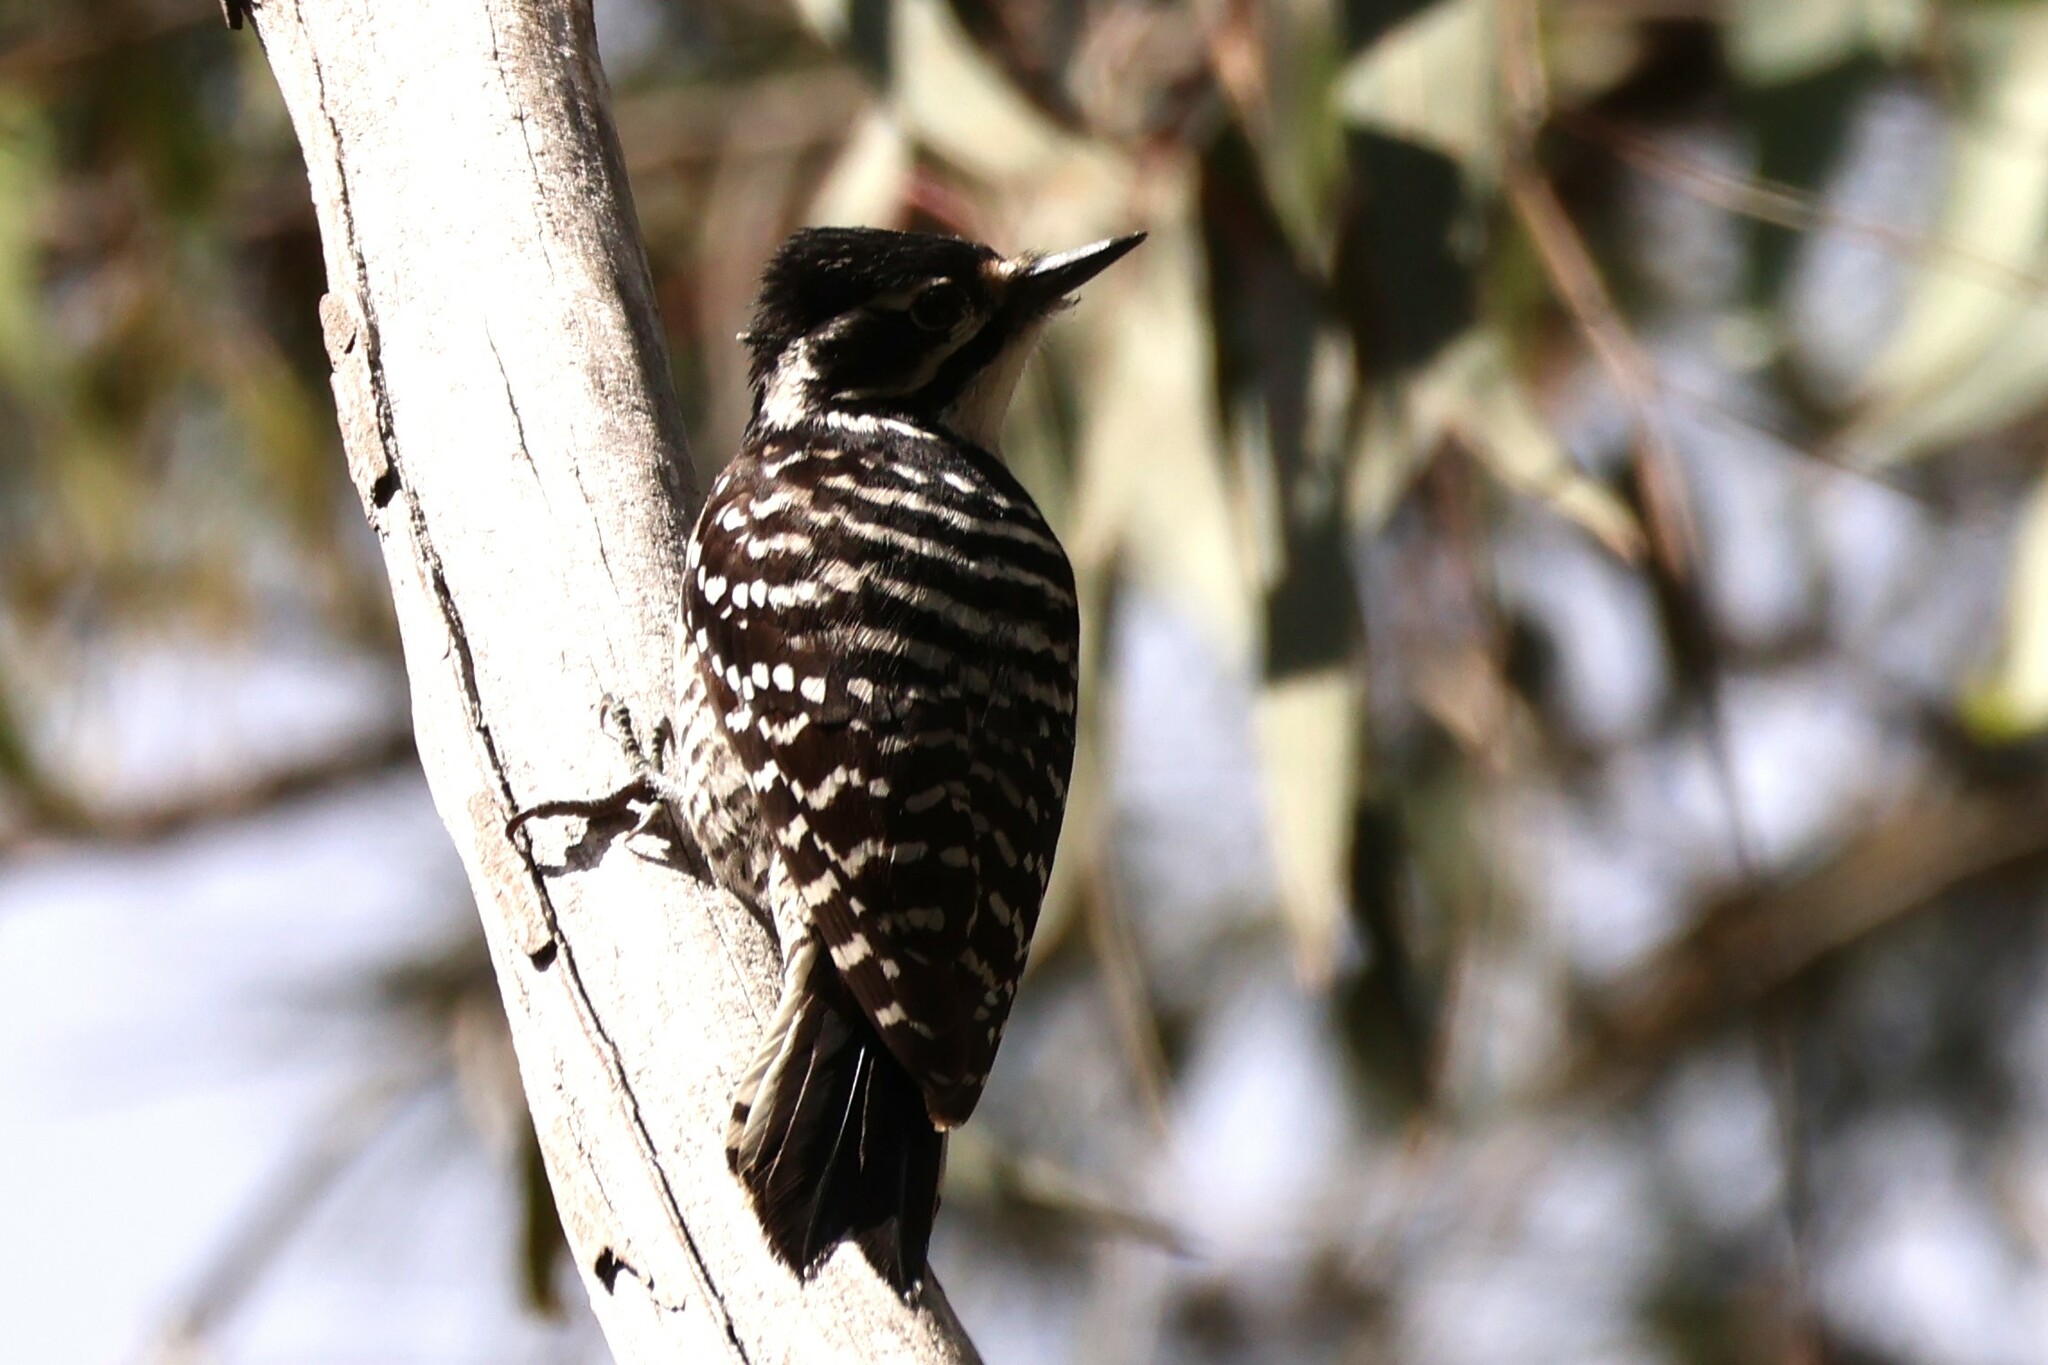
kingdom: Animalia
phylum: Chordata
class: Aves
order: Piciformes
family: Picidae
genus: Dryobates
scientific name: Dryobates nuttallii
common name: Nuttall's woodpecker
